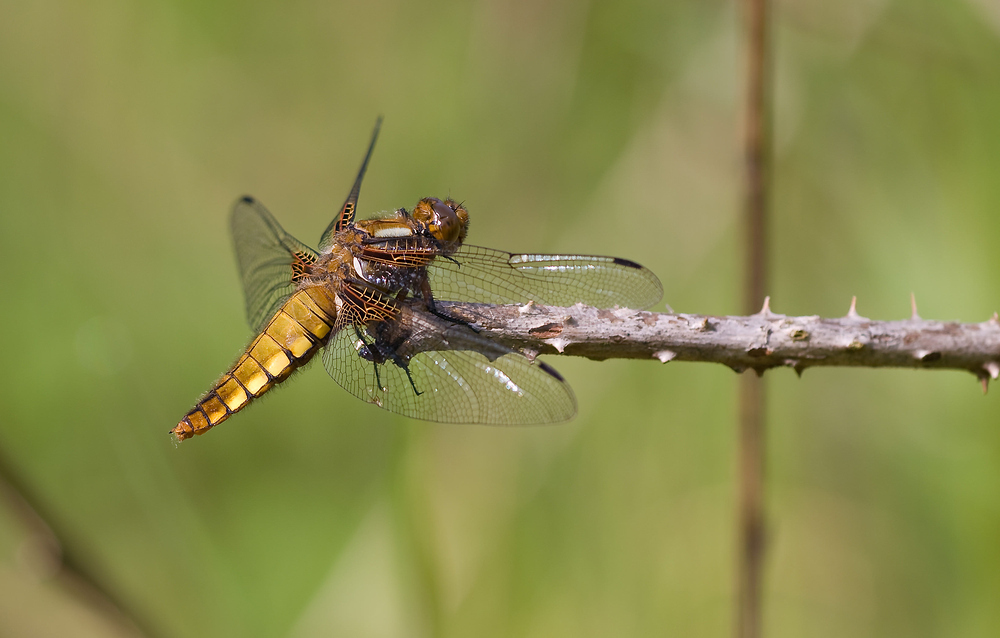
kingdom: Animalia
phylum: Arthropoda
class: Insecta
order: Odonata
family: Libellulidae
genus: Libellula
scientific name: Libellula depressa
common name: Broad-bodied chaser
